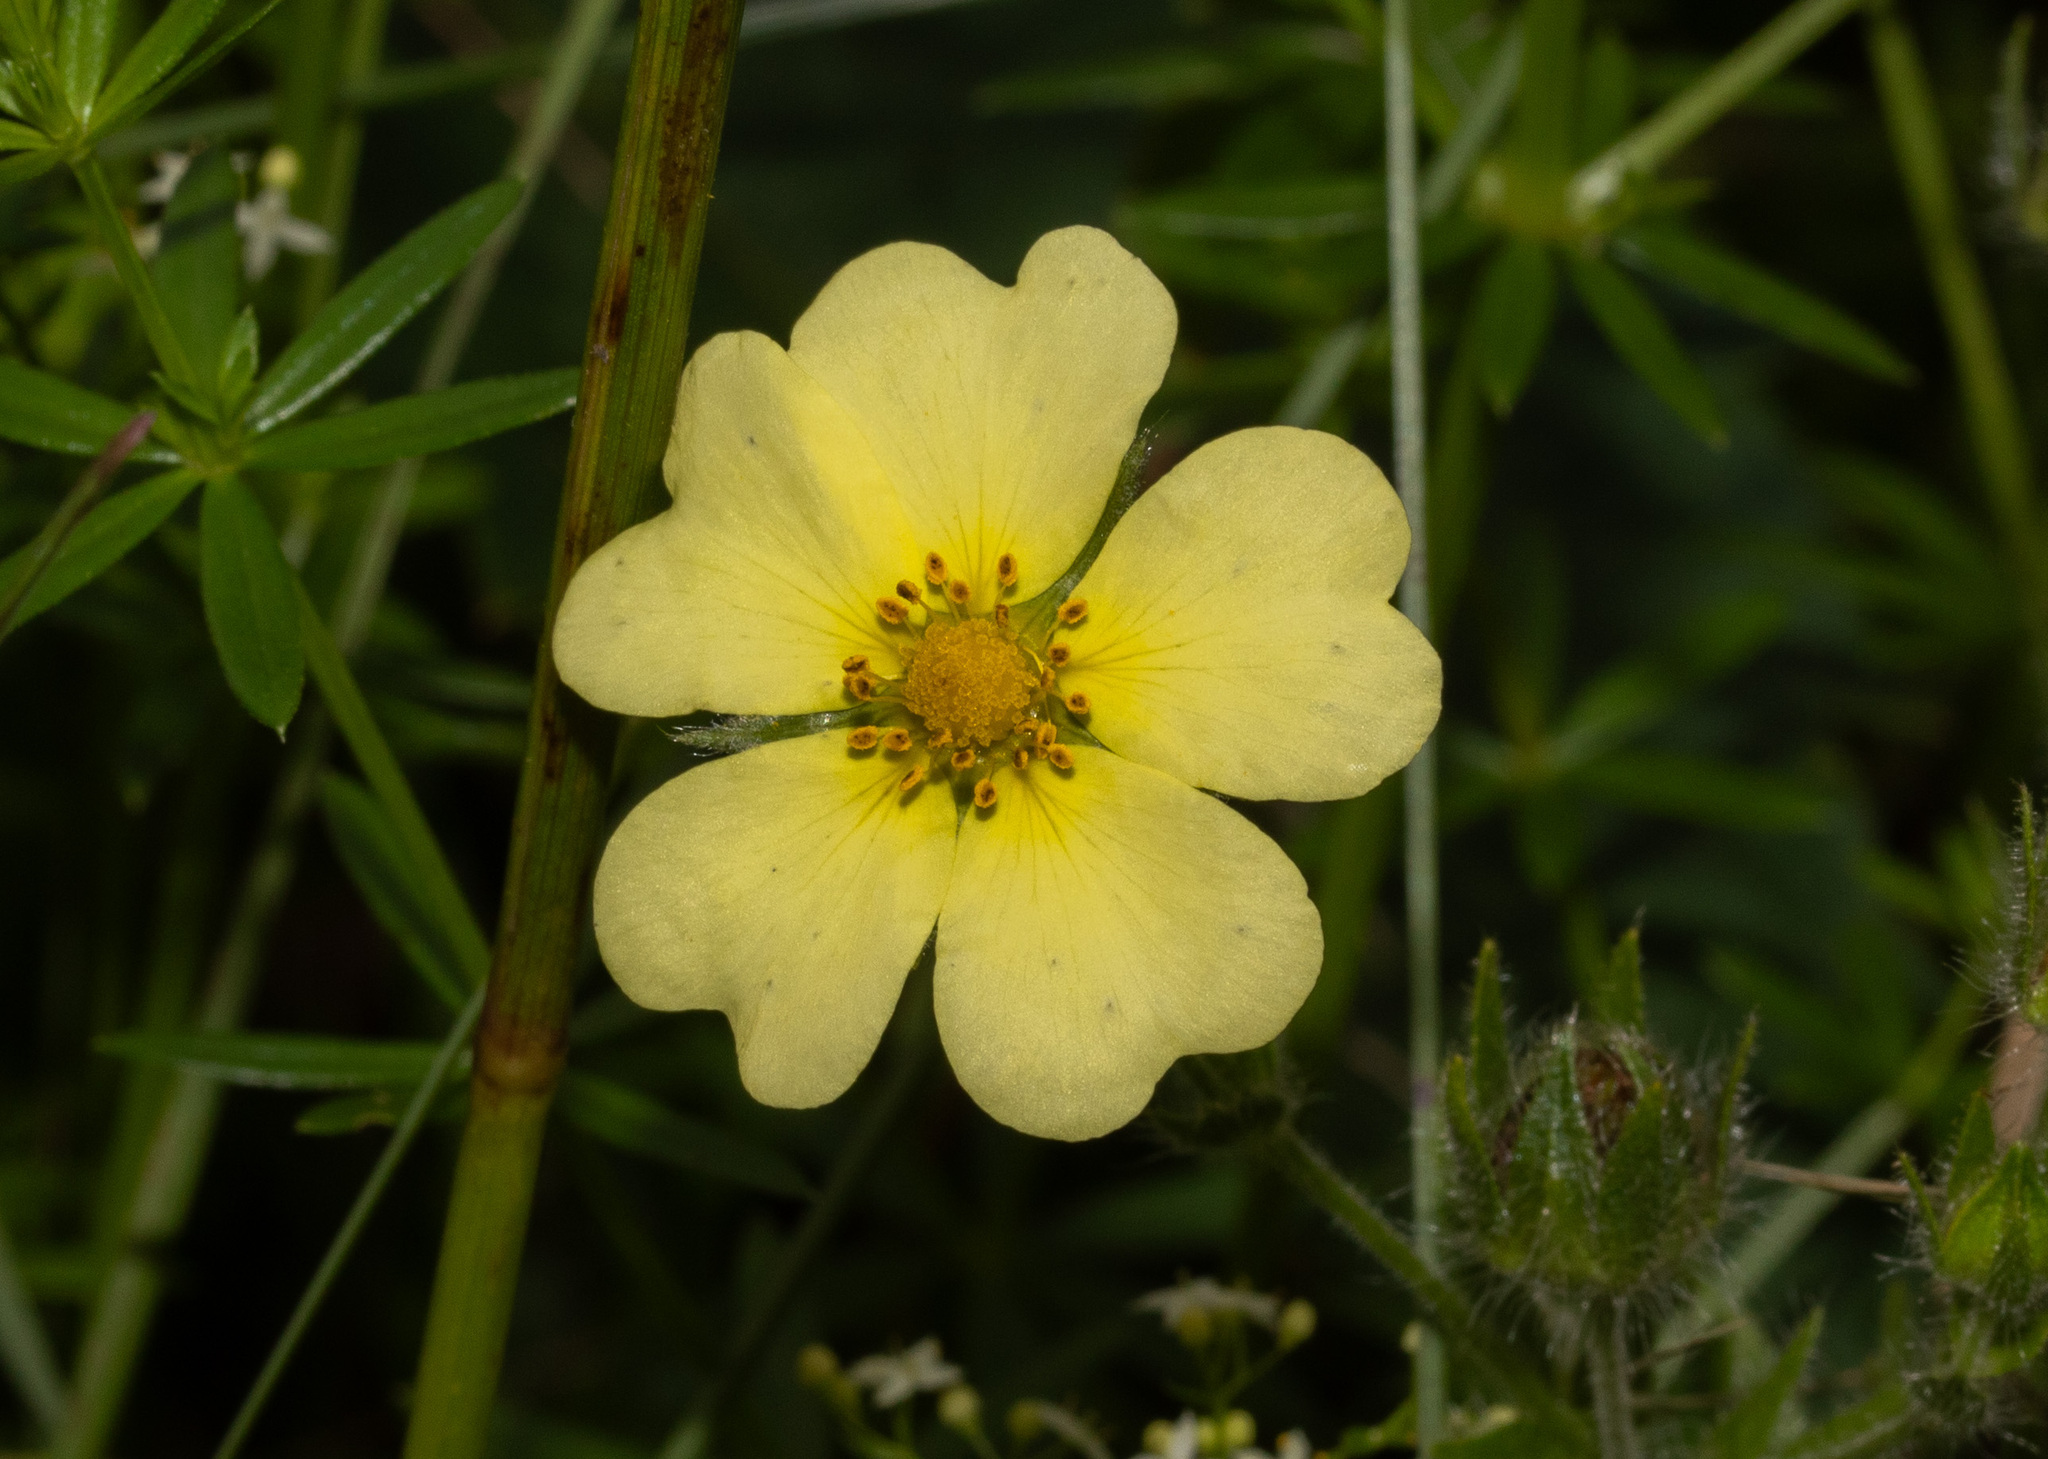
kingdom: Plantae
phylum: Tracheophyta
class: Magnoliopsida
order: Rosales
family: Rosaceae
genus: Potentilla
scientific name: Potentilla recta
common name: Sulphur cinquefoil
